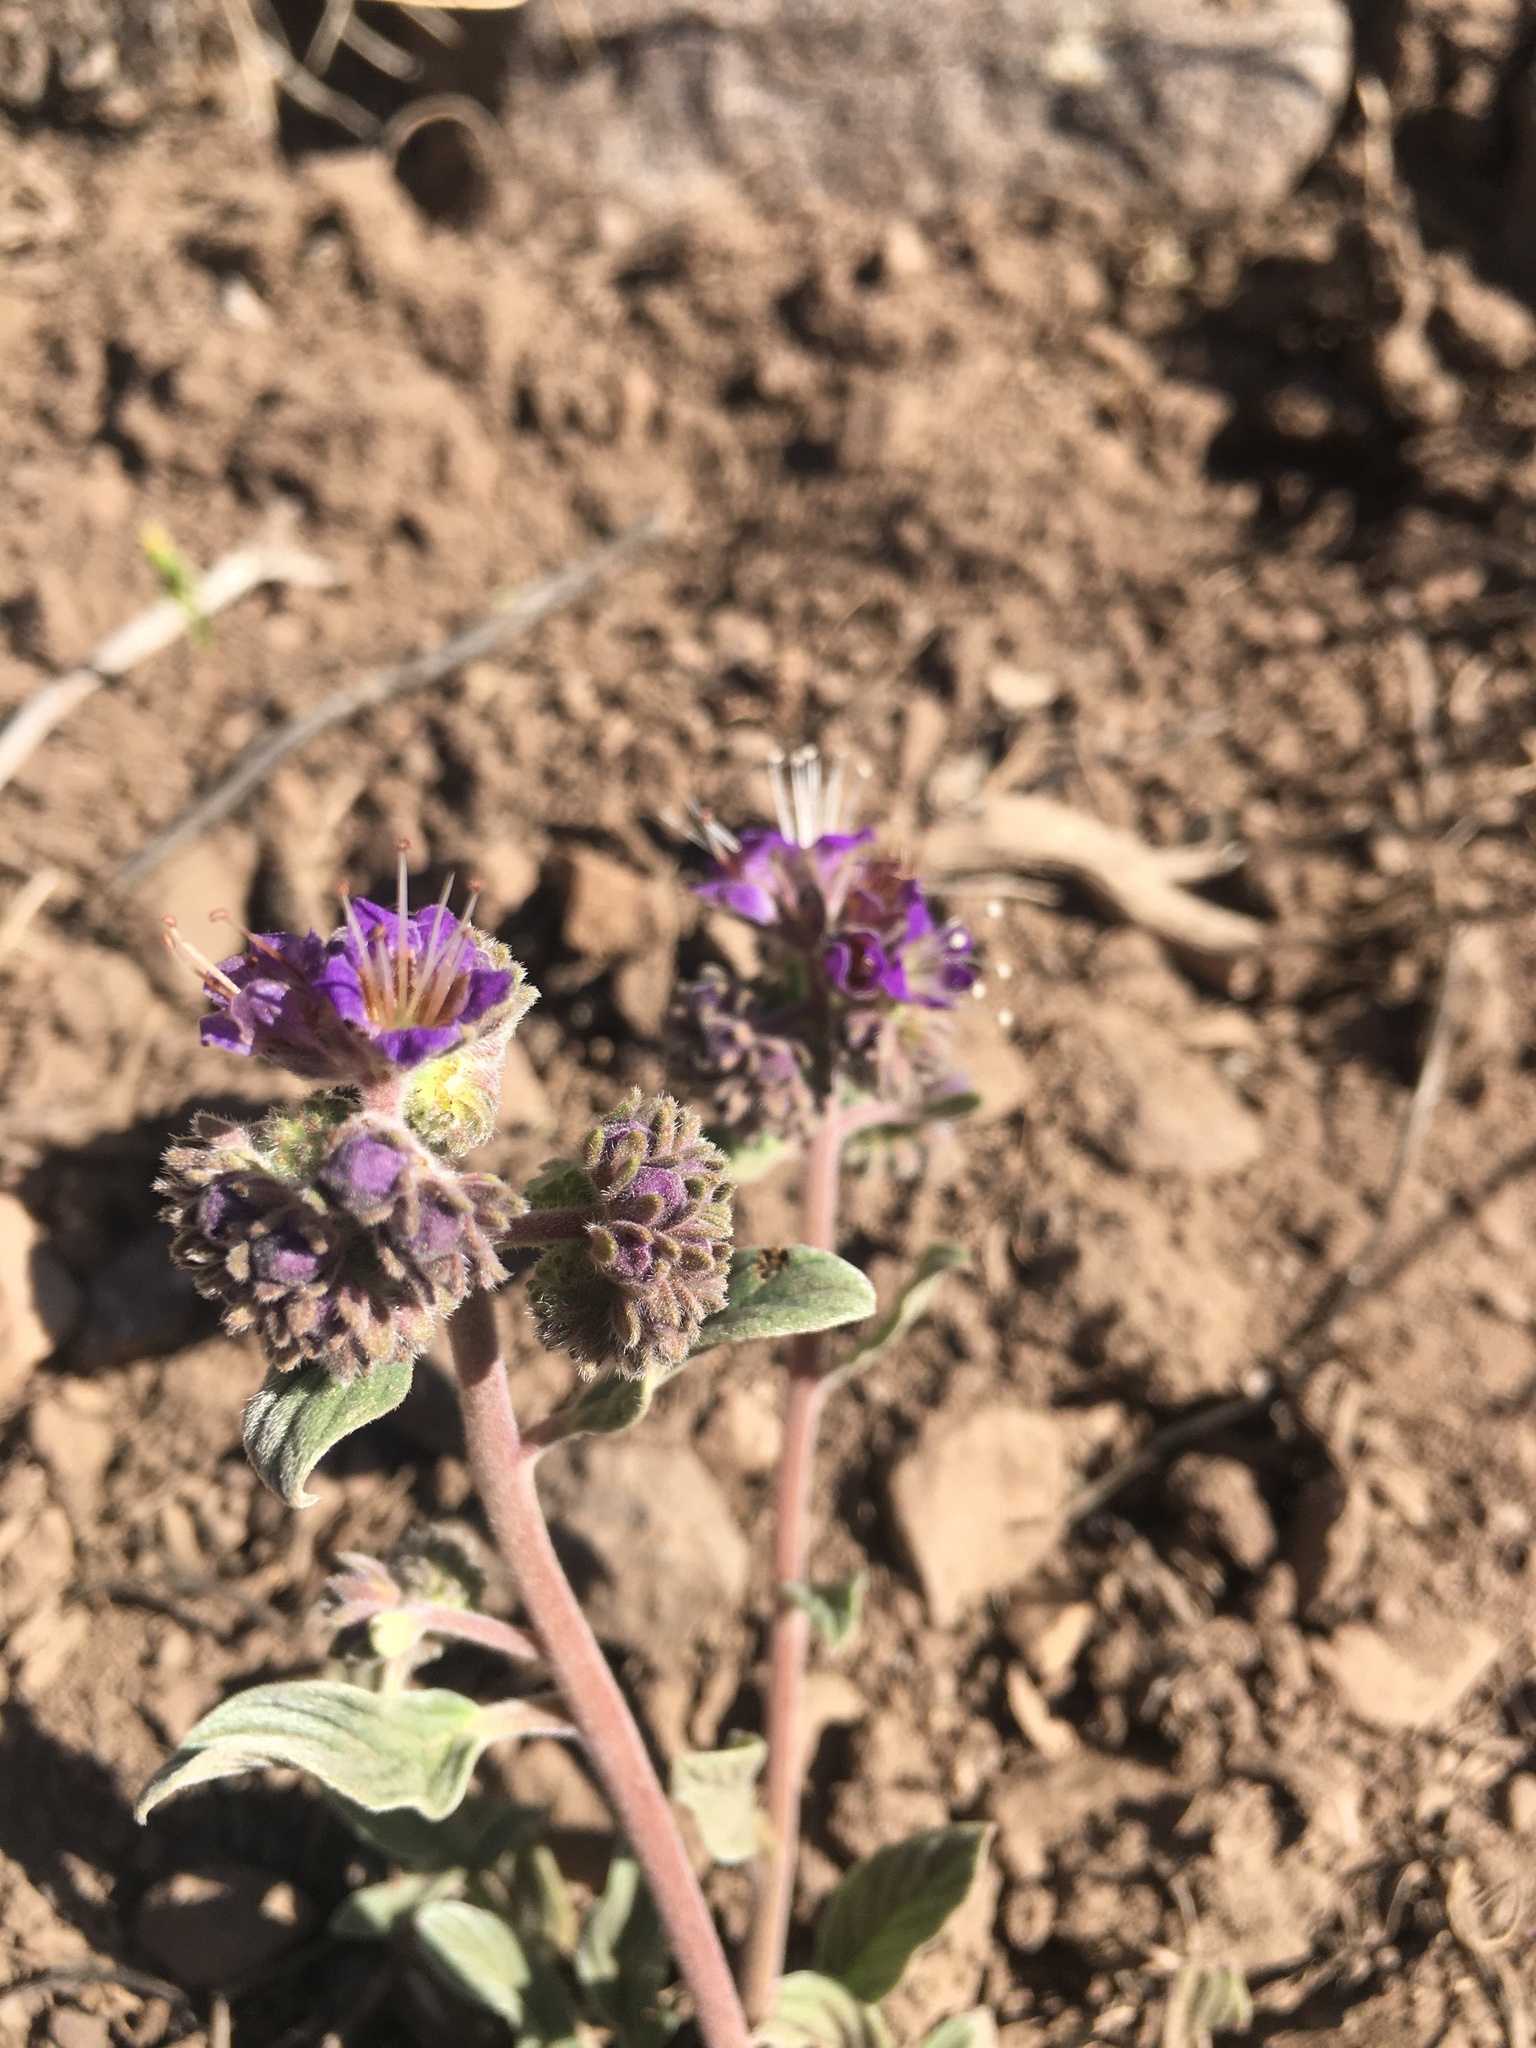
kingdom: Plantae
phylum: Tracheophyta
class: Magnoliopsida
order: Boraginales
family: Hydrophyllaceae
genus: Phacelia
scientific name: Phacelia secunda
